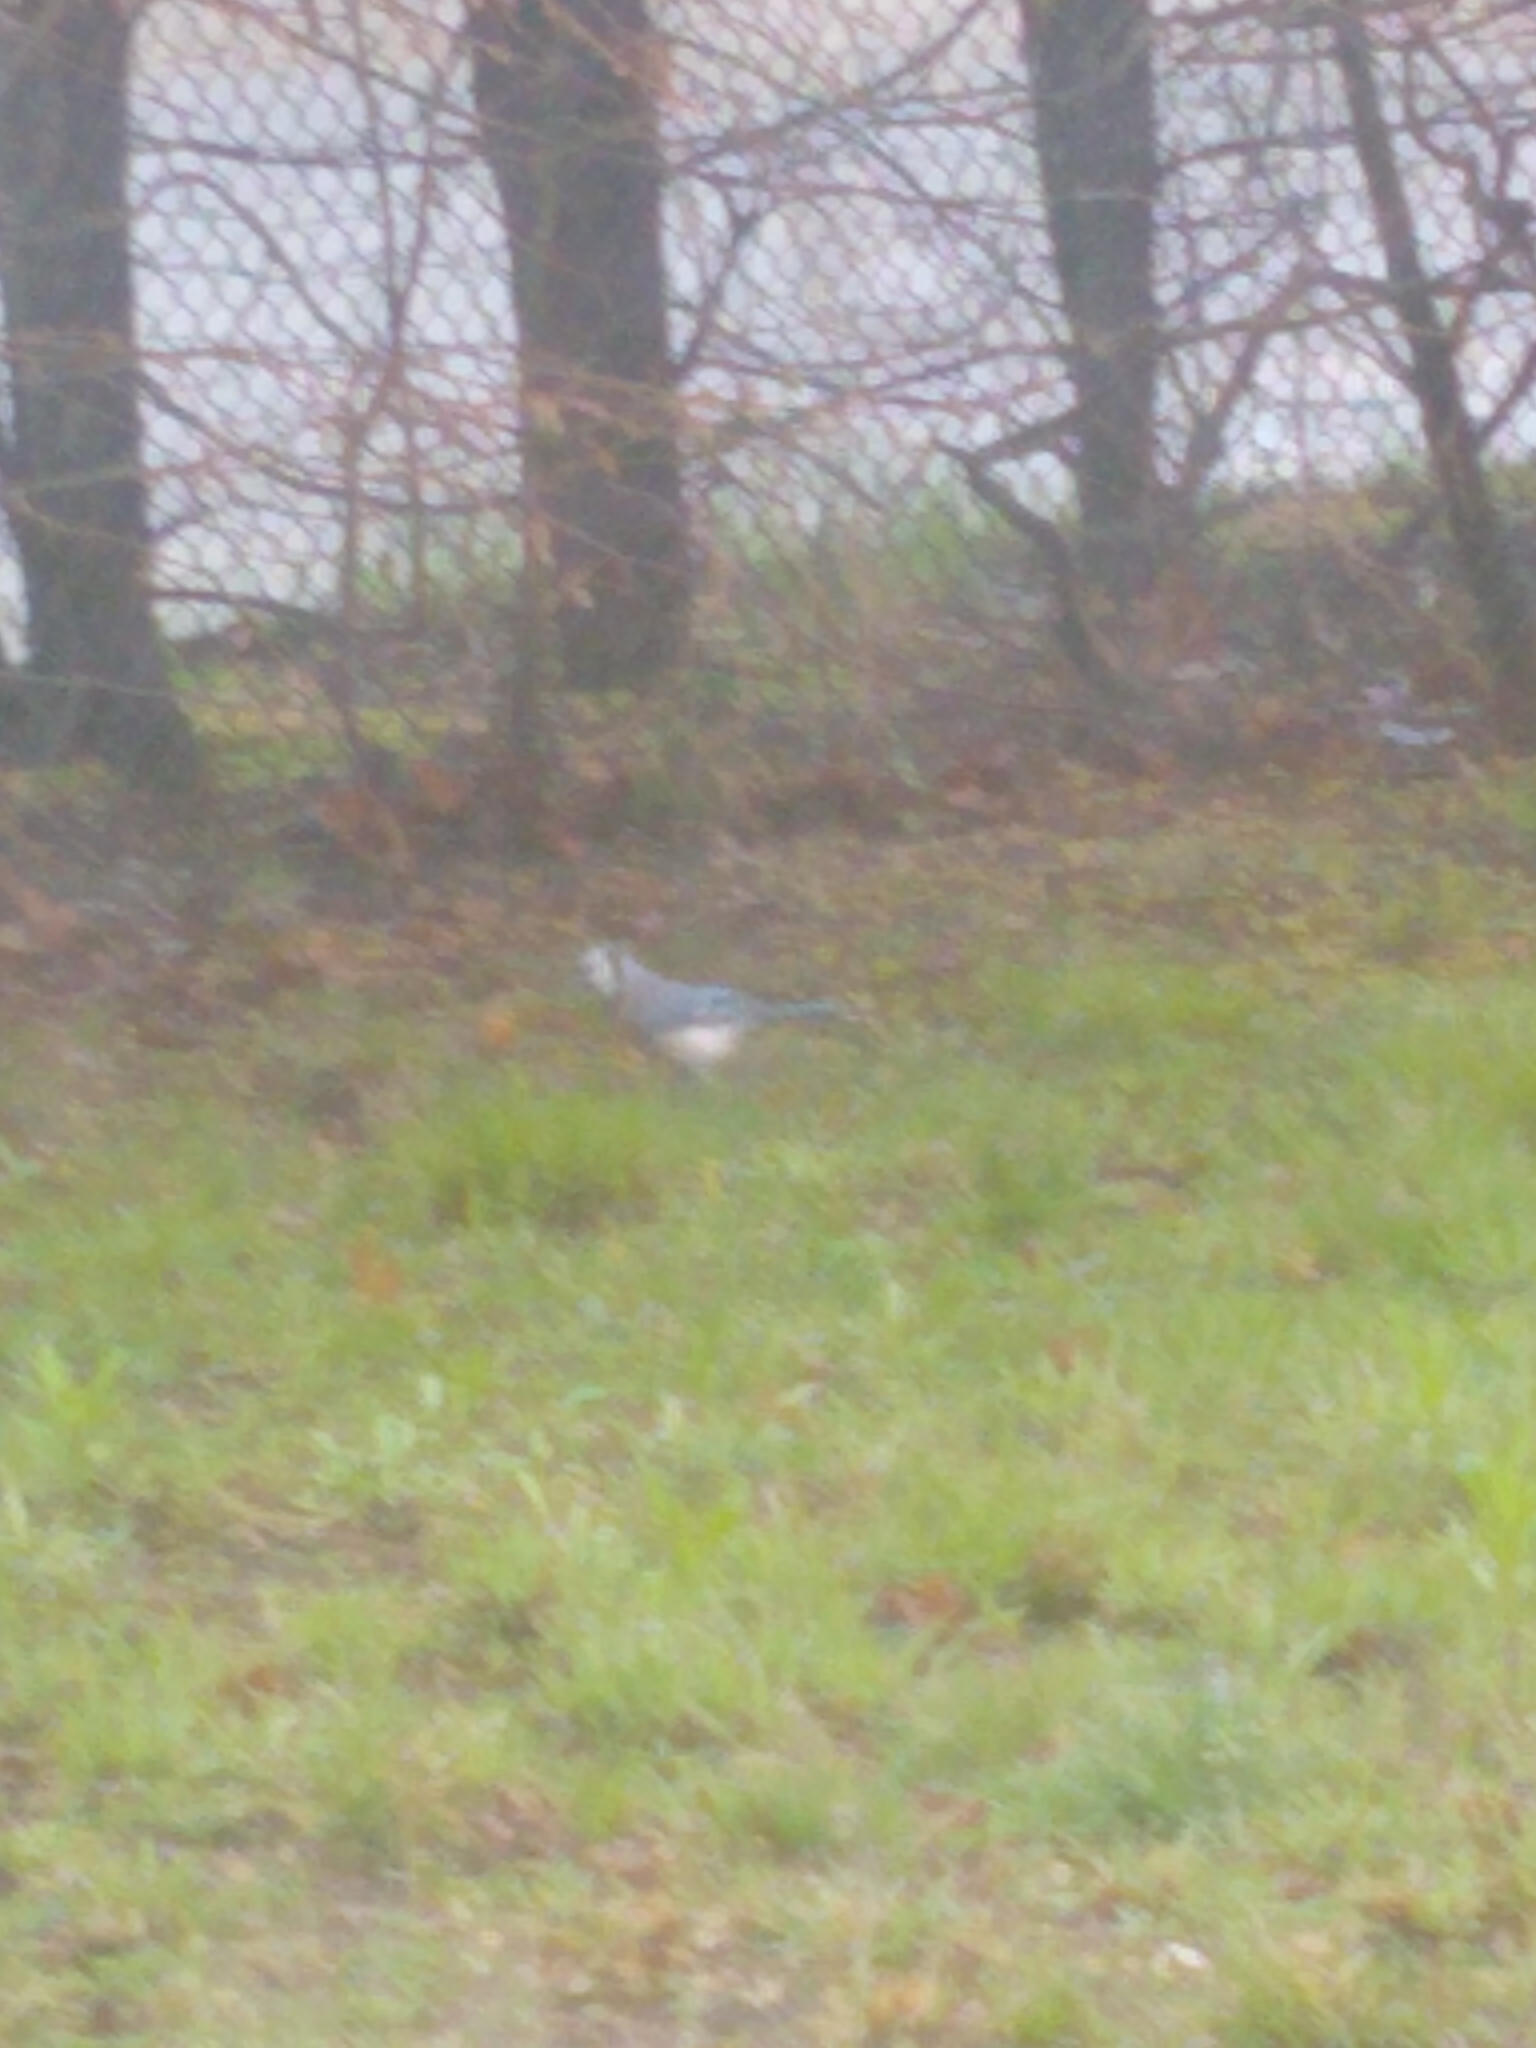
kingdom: Animalia
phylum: Chordata
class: Aves
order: Passeriformes
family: Corvidae
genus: Cyanocitta
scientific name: Cyanocitta cristata
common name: Blue jay
